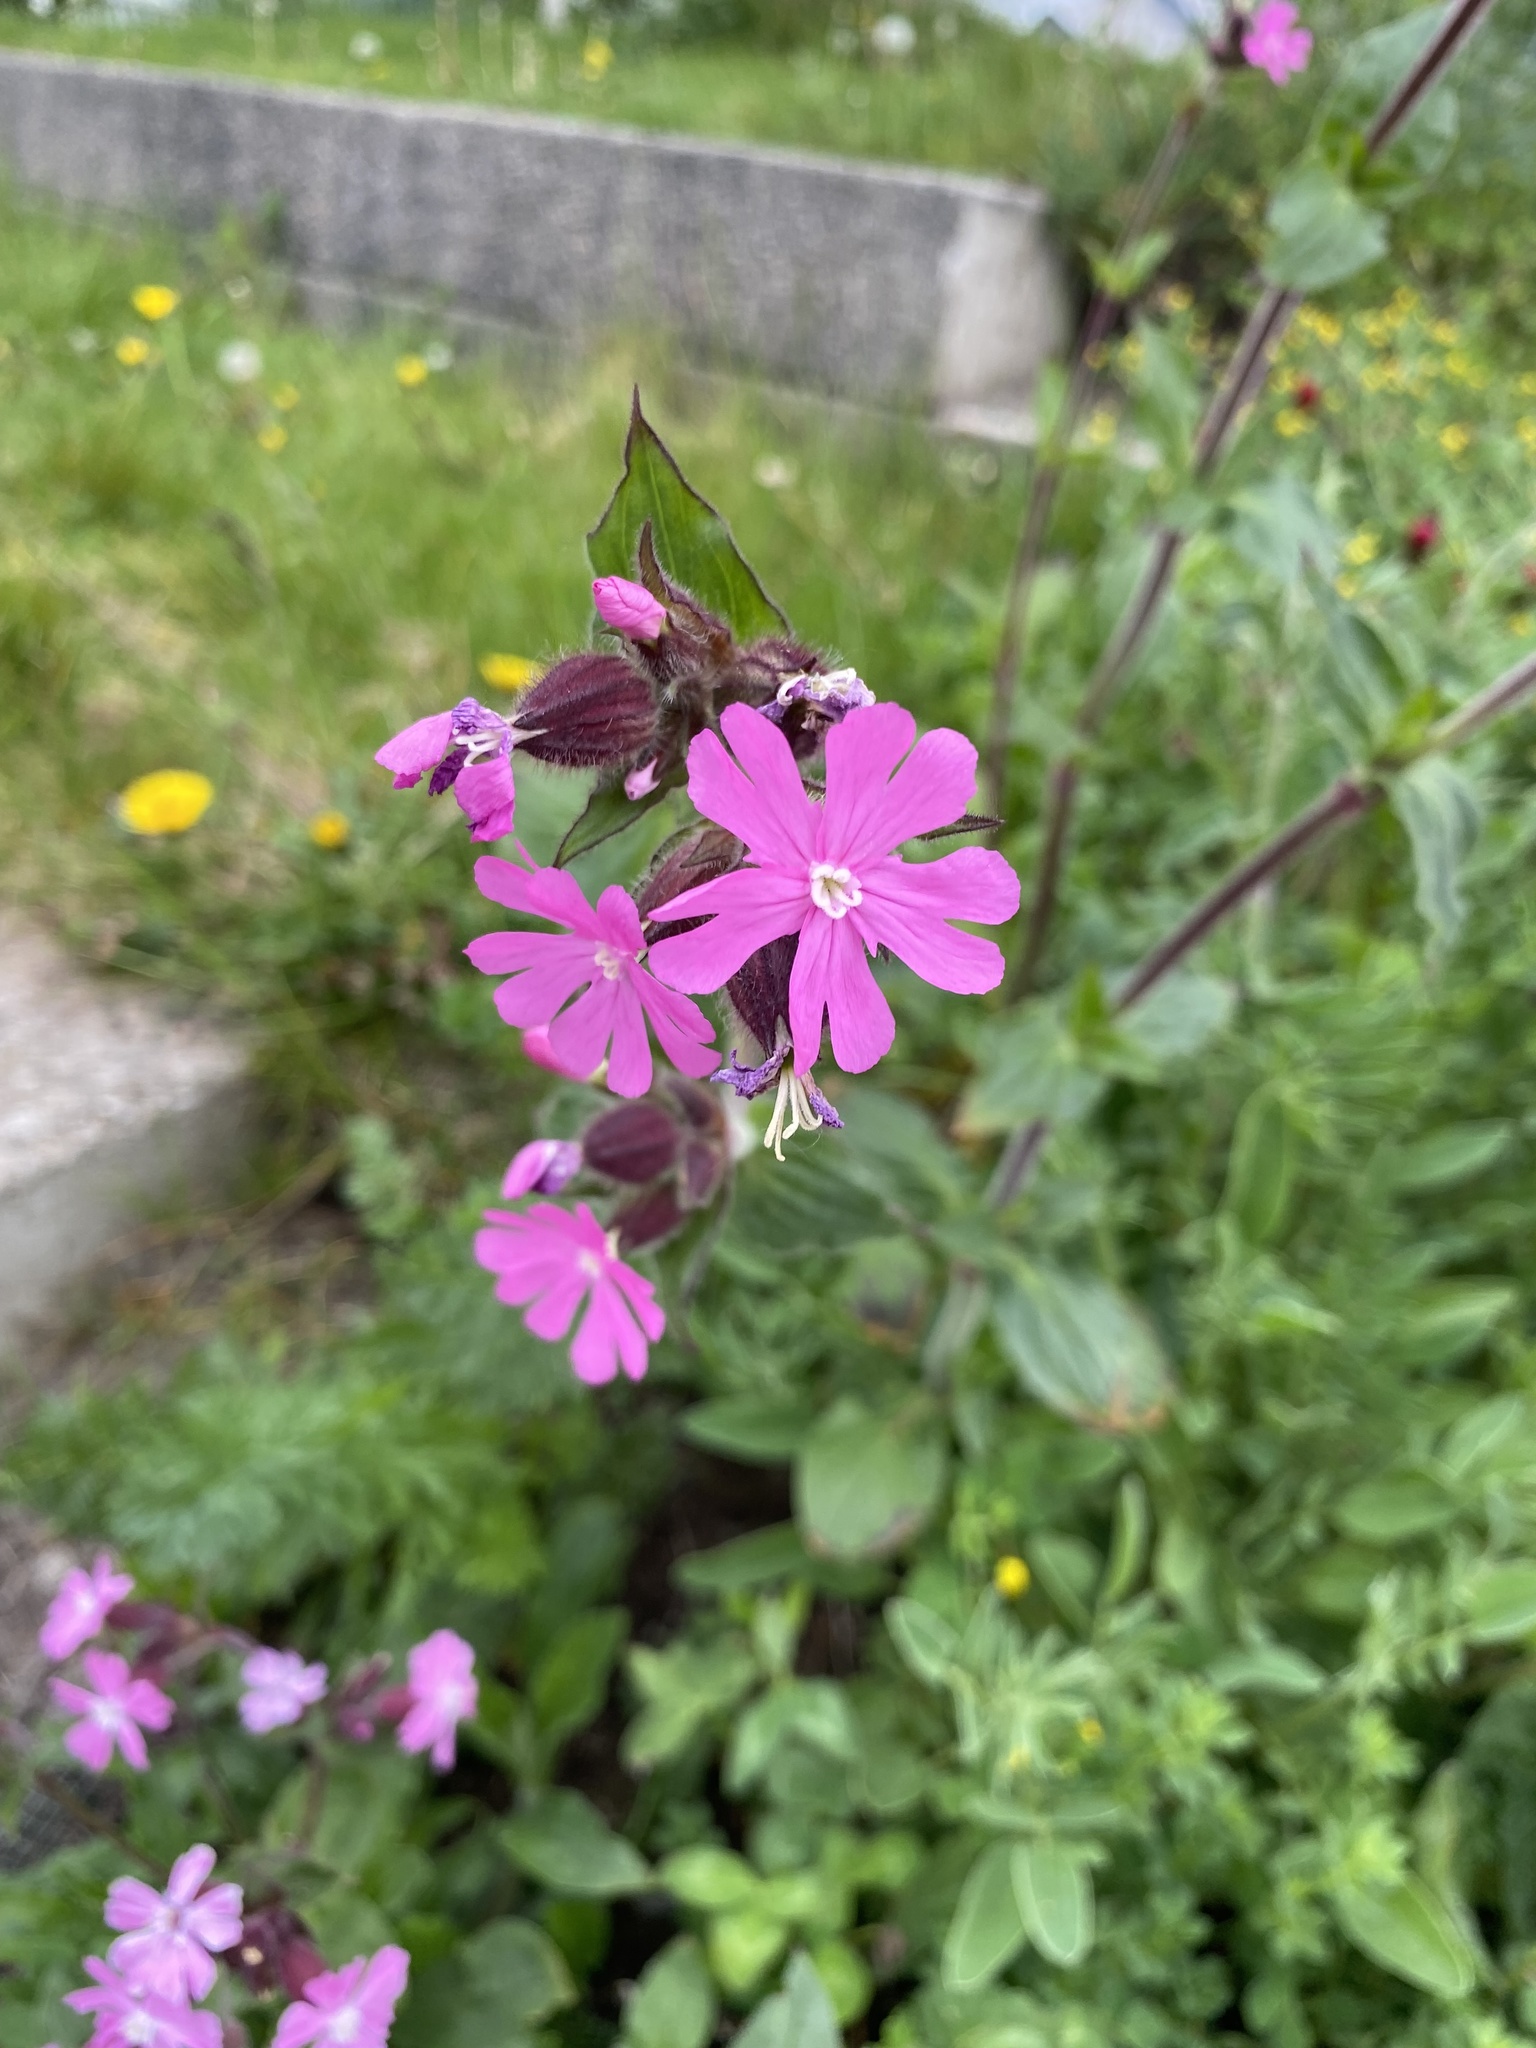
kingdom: Plantae
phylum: Tracheophyta
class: Magnoliopsida
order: Caryophyllales
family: Caryophyllaceae
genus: Silene
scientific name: Silene dioica
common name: Red campion
